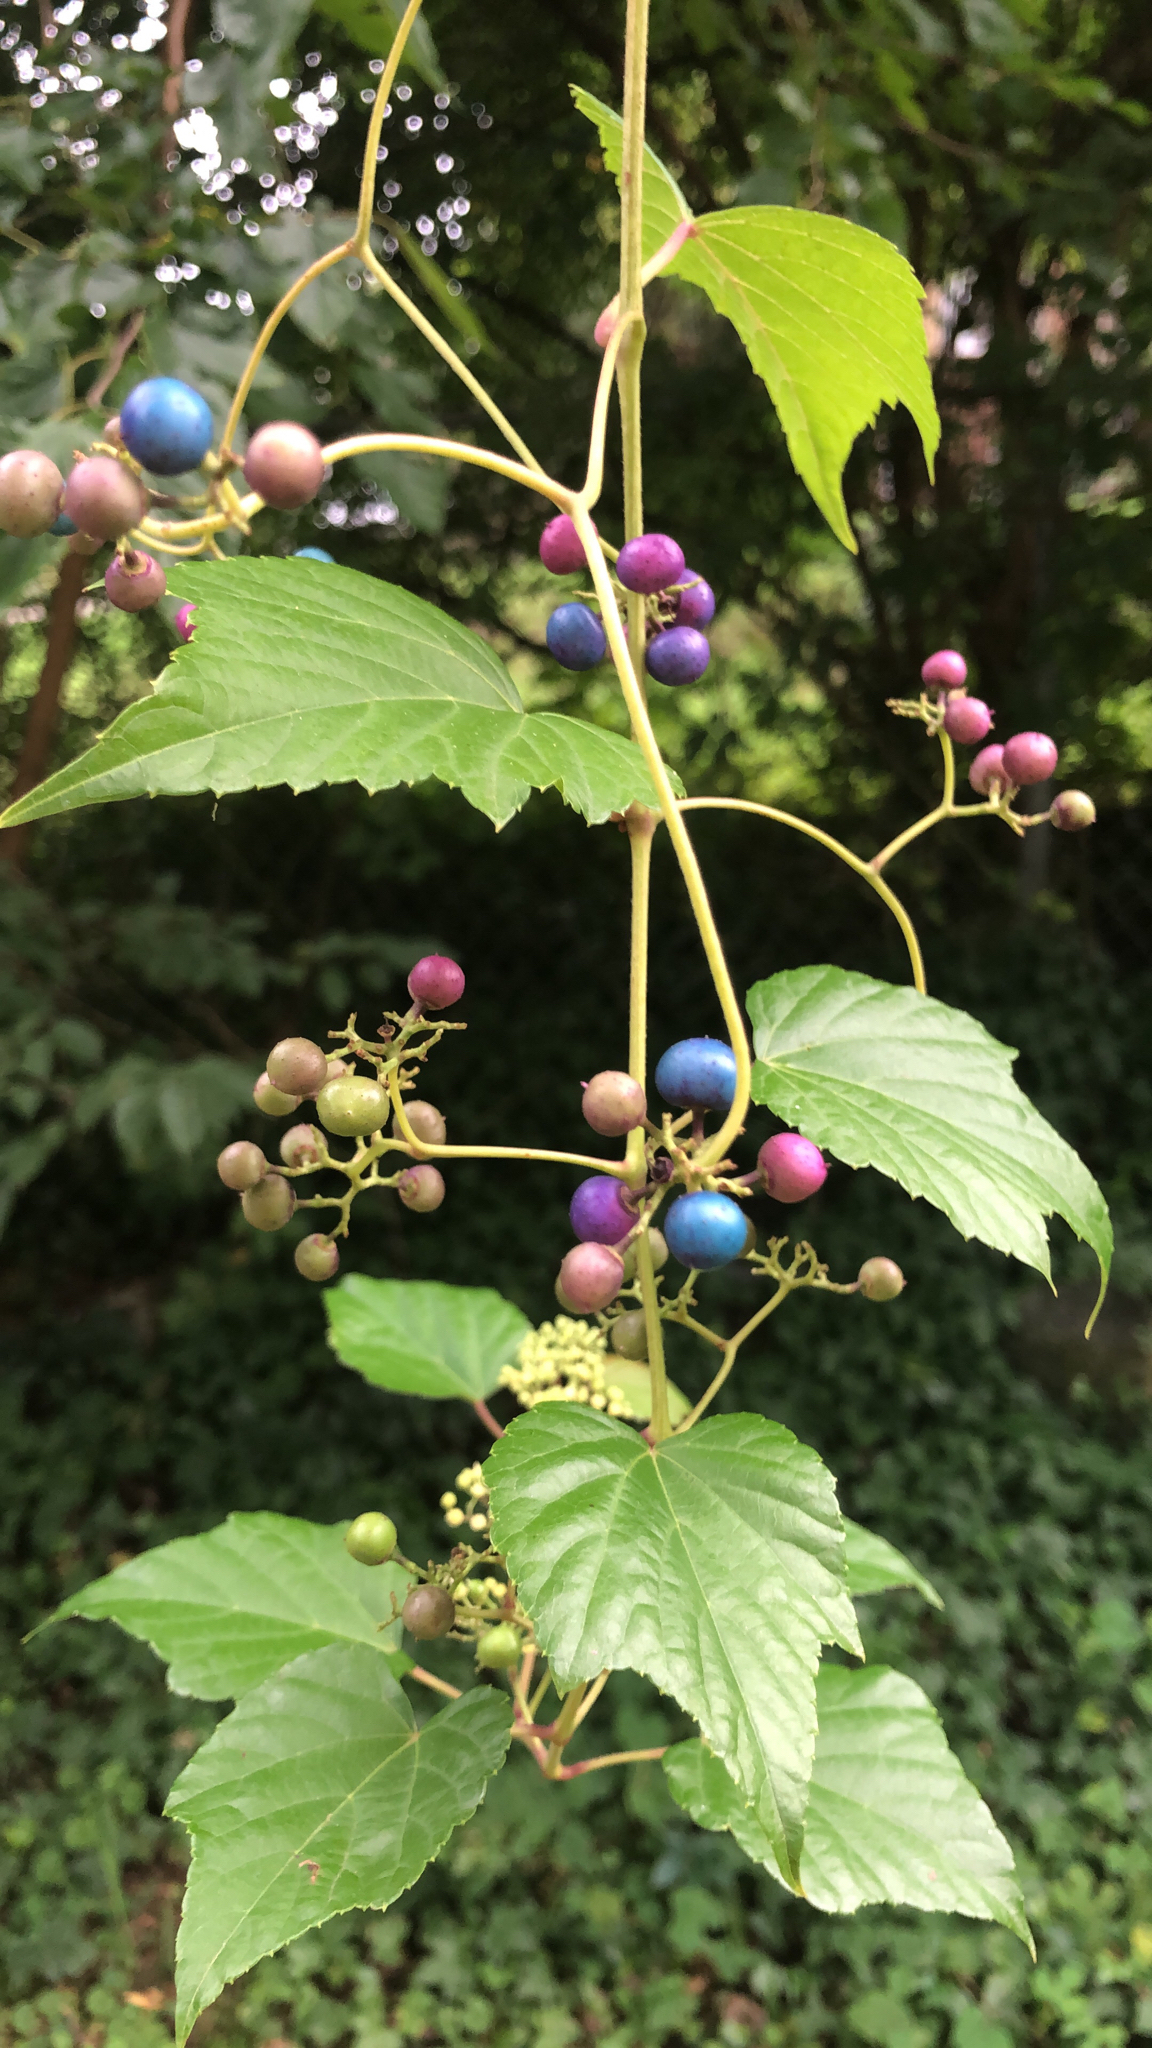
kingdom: Plantae
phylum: Tracheophyta
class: Magnoliopsida
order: Vitales
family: Vitaceae
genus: Ampelopsis
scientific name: Ampelopsis glandulosa
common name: Amur peppervine
